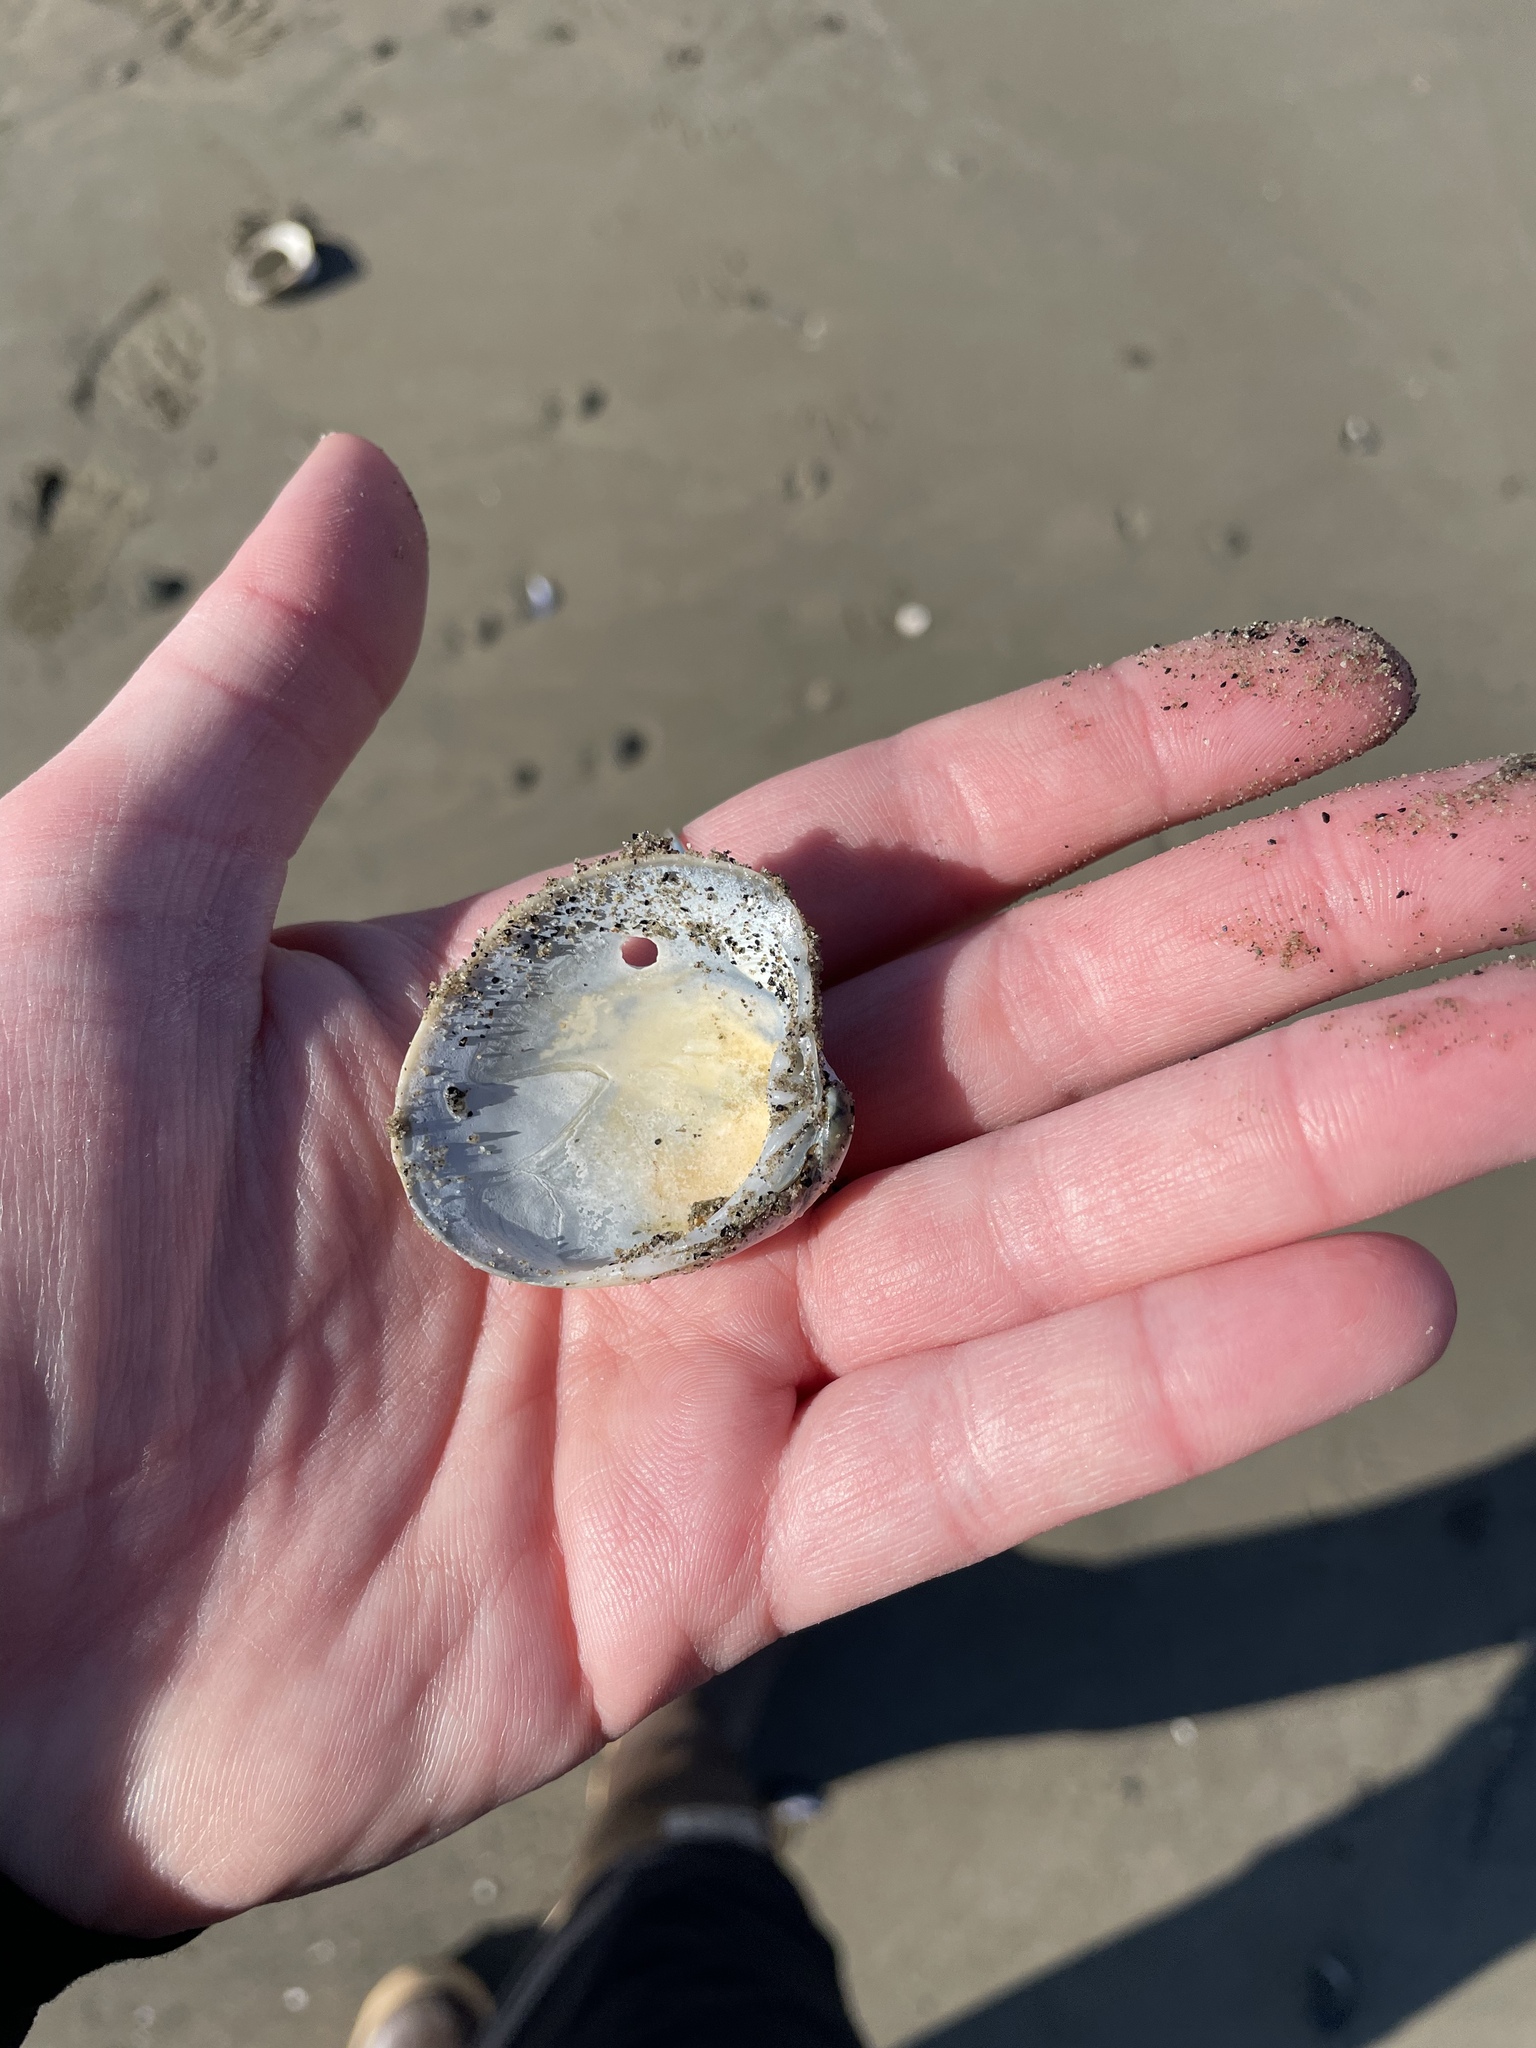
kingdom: Animalia
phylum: Mollusca
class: Bivalvia
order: Venerida
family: Veneridae
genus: Agriopoma
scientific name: Agriopoma morrhuanum
